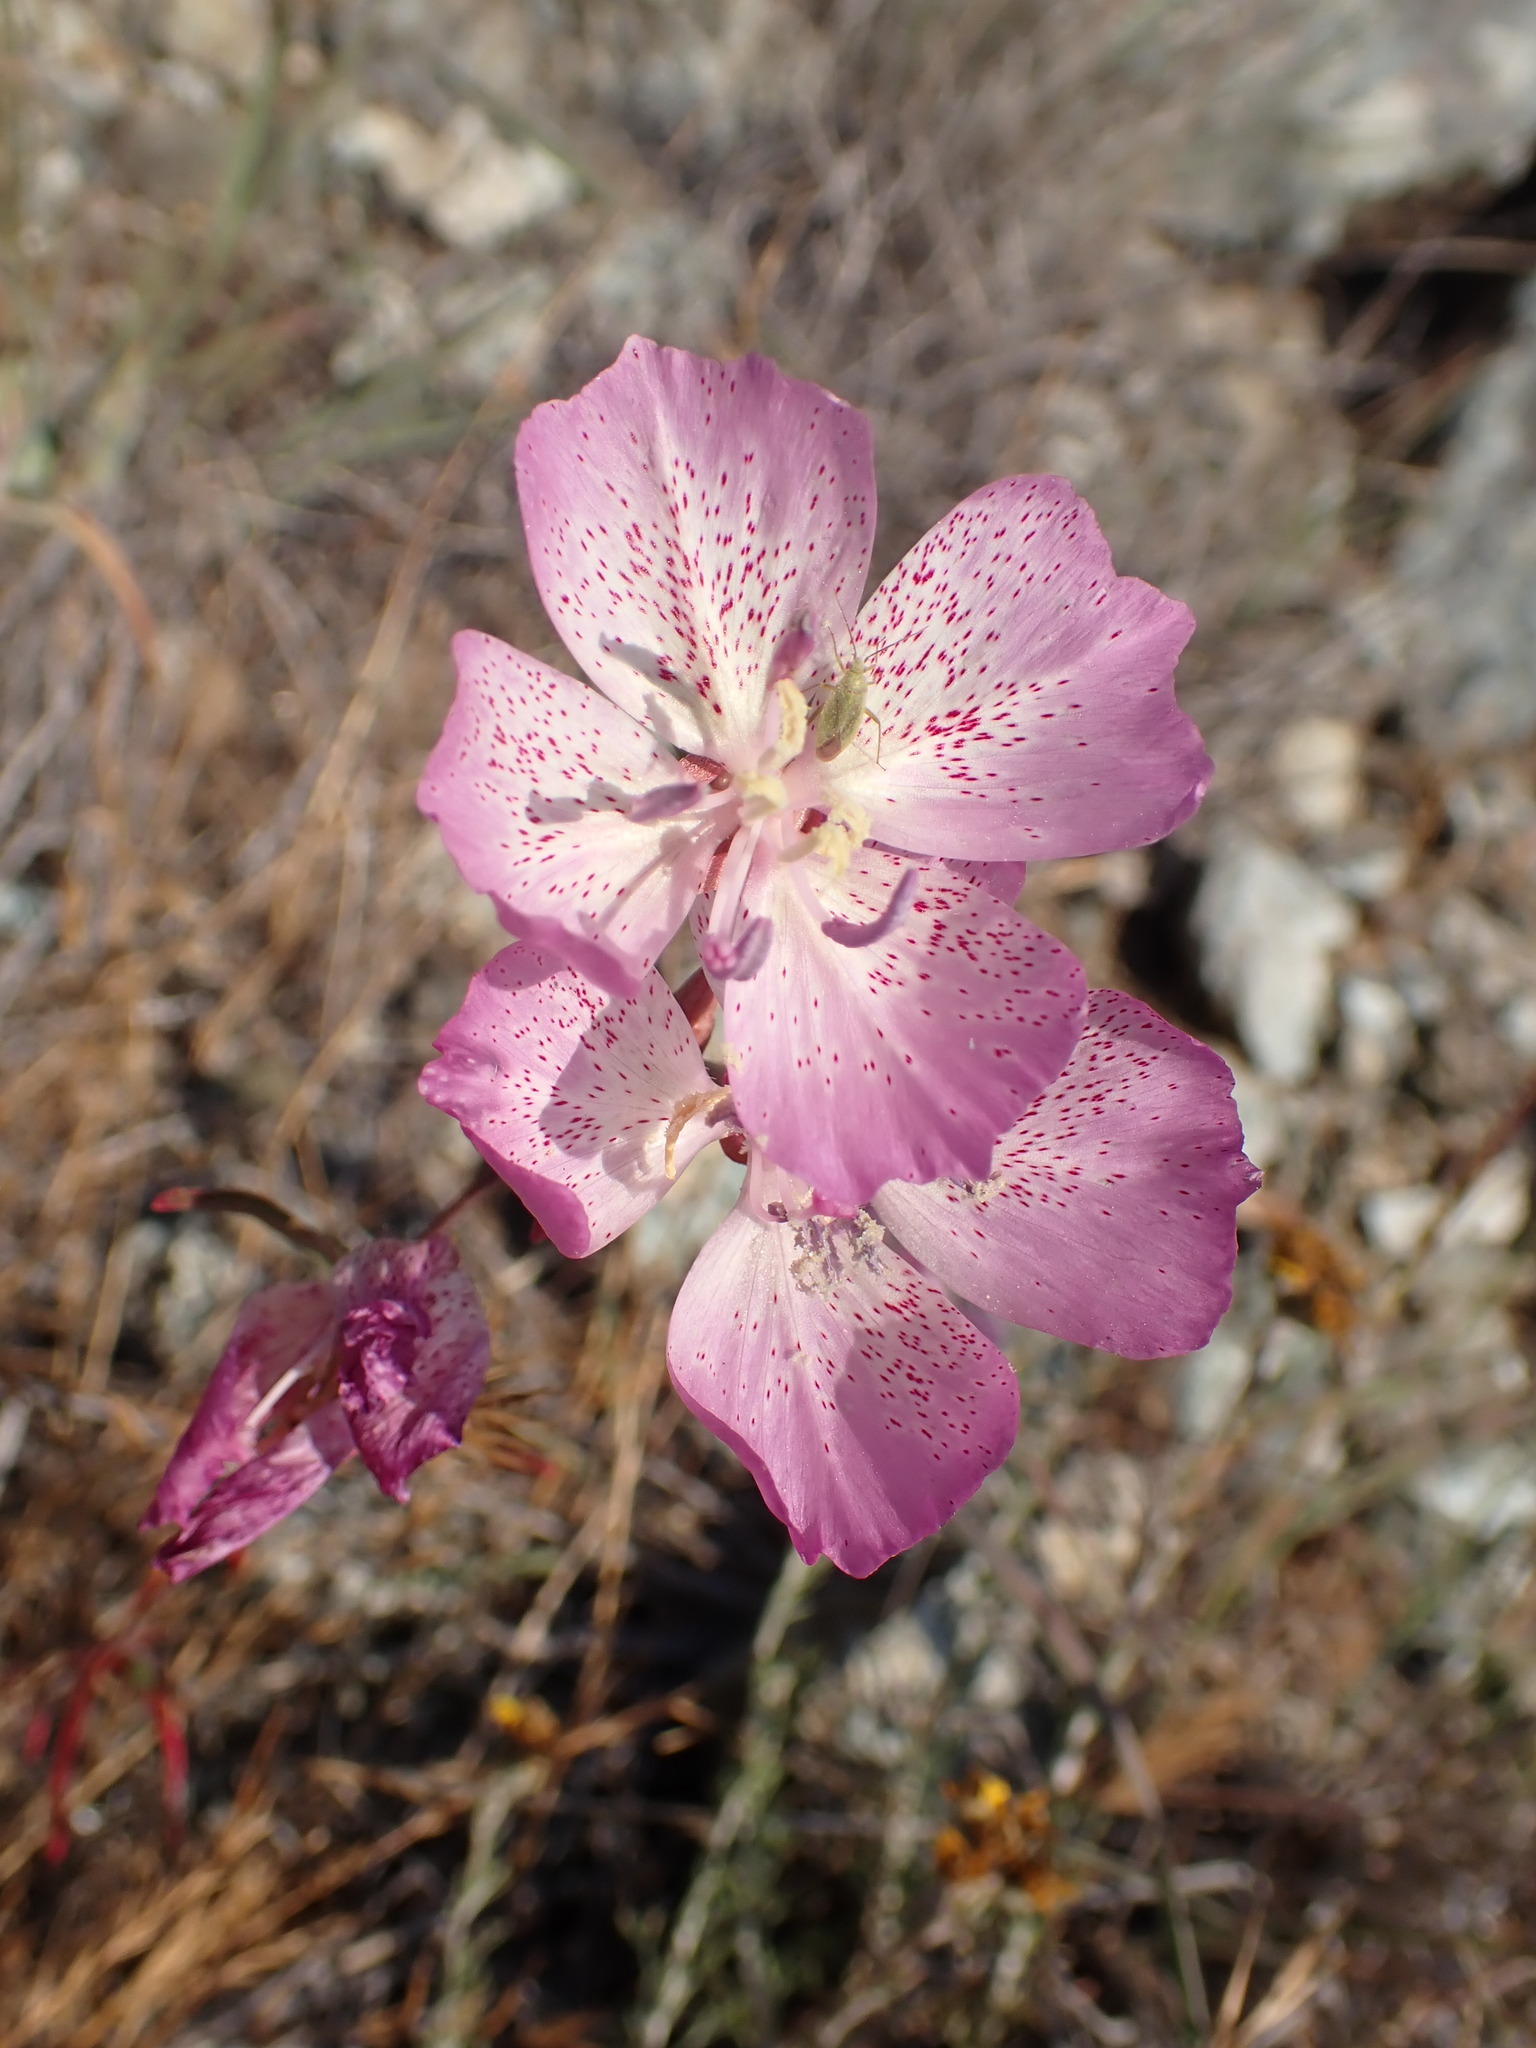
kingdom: Plantae
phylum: Tracheophyta
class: Magnoliopsida
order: Myrtales
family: Onagraceae
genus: Clarkia
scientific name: Clarkia bottae
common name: Punch-bowl godetia
